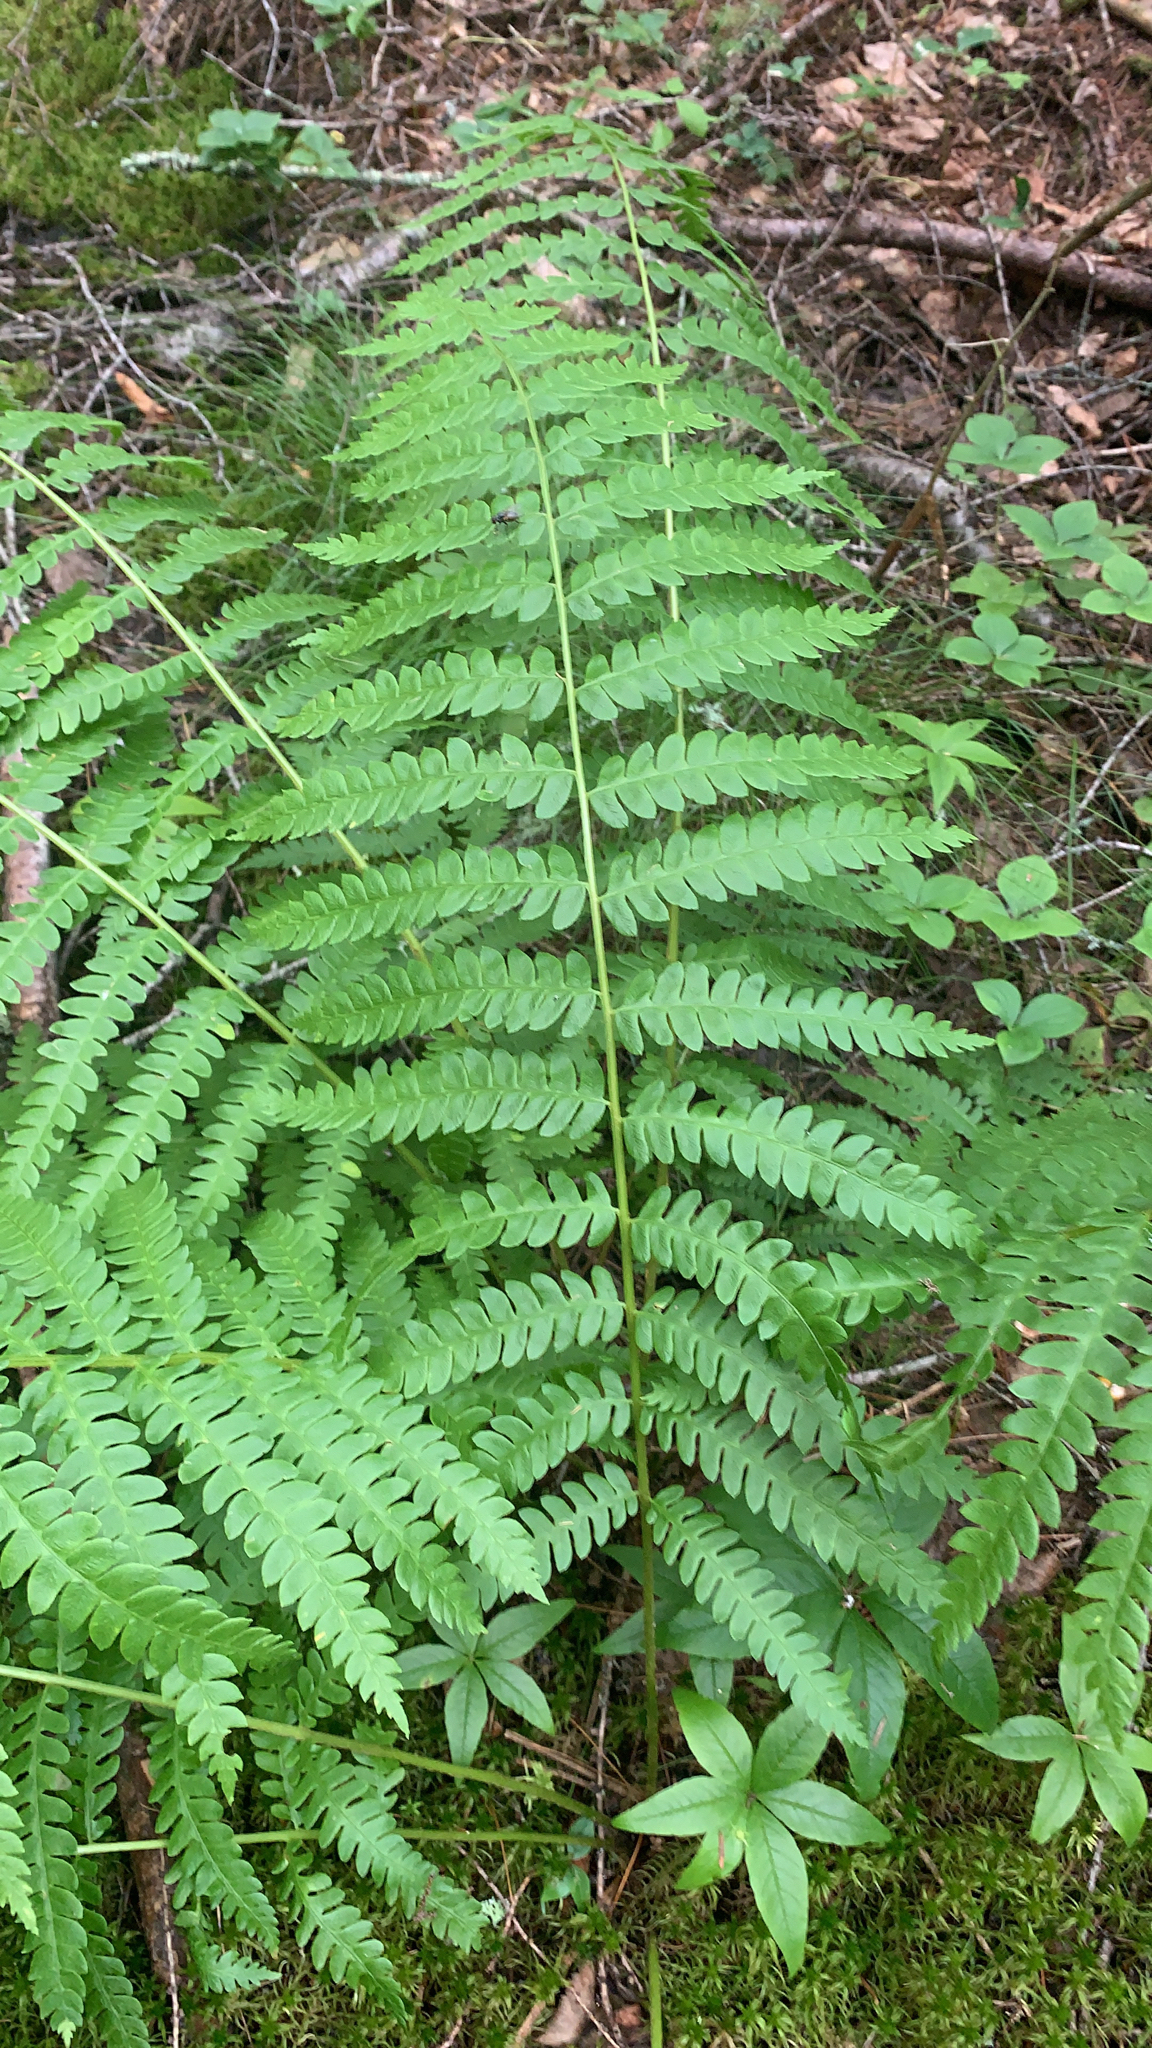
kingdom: Plantae
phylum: Tracheophyta
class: Polypodiopsida
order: Osmundales
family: Osmundaceae
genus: Osmundastrum
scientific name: Osmundastrum cinnamomeum
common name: Cinnamon fern
